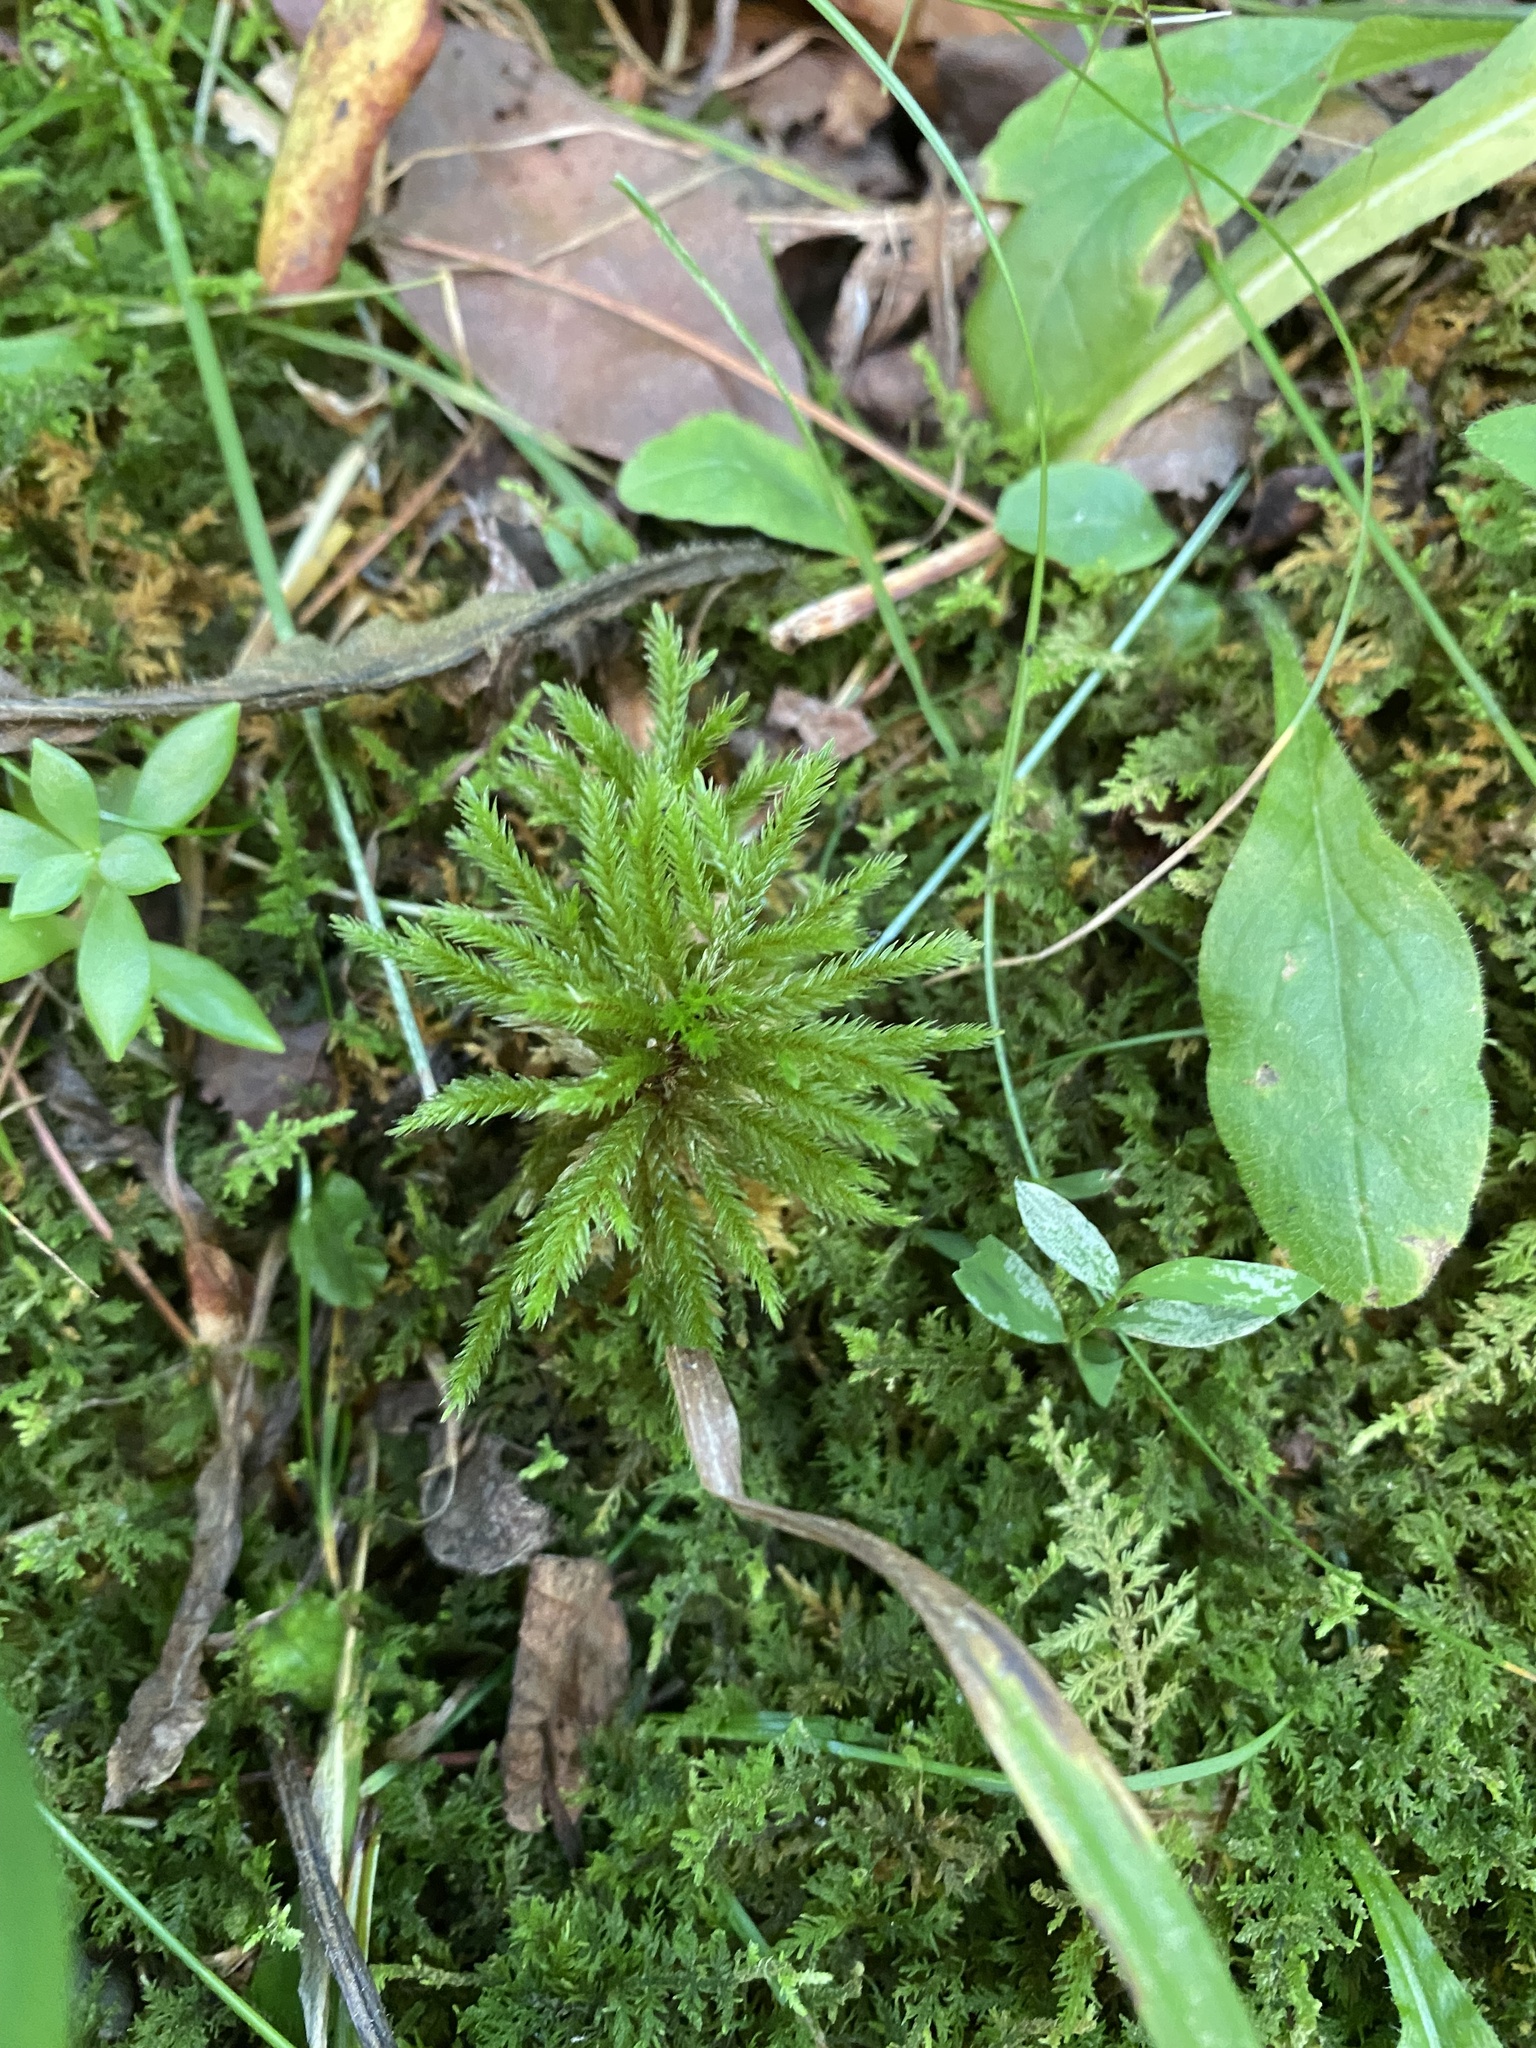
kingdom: Plantae
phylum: Bryophyta
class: Bryopsida
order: Hypnales
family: Climaciaceae
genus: Climacium
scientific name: Climacium dendroides
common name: Northern tree moss
